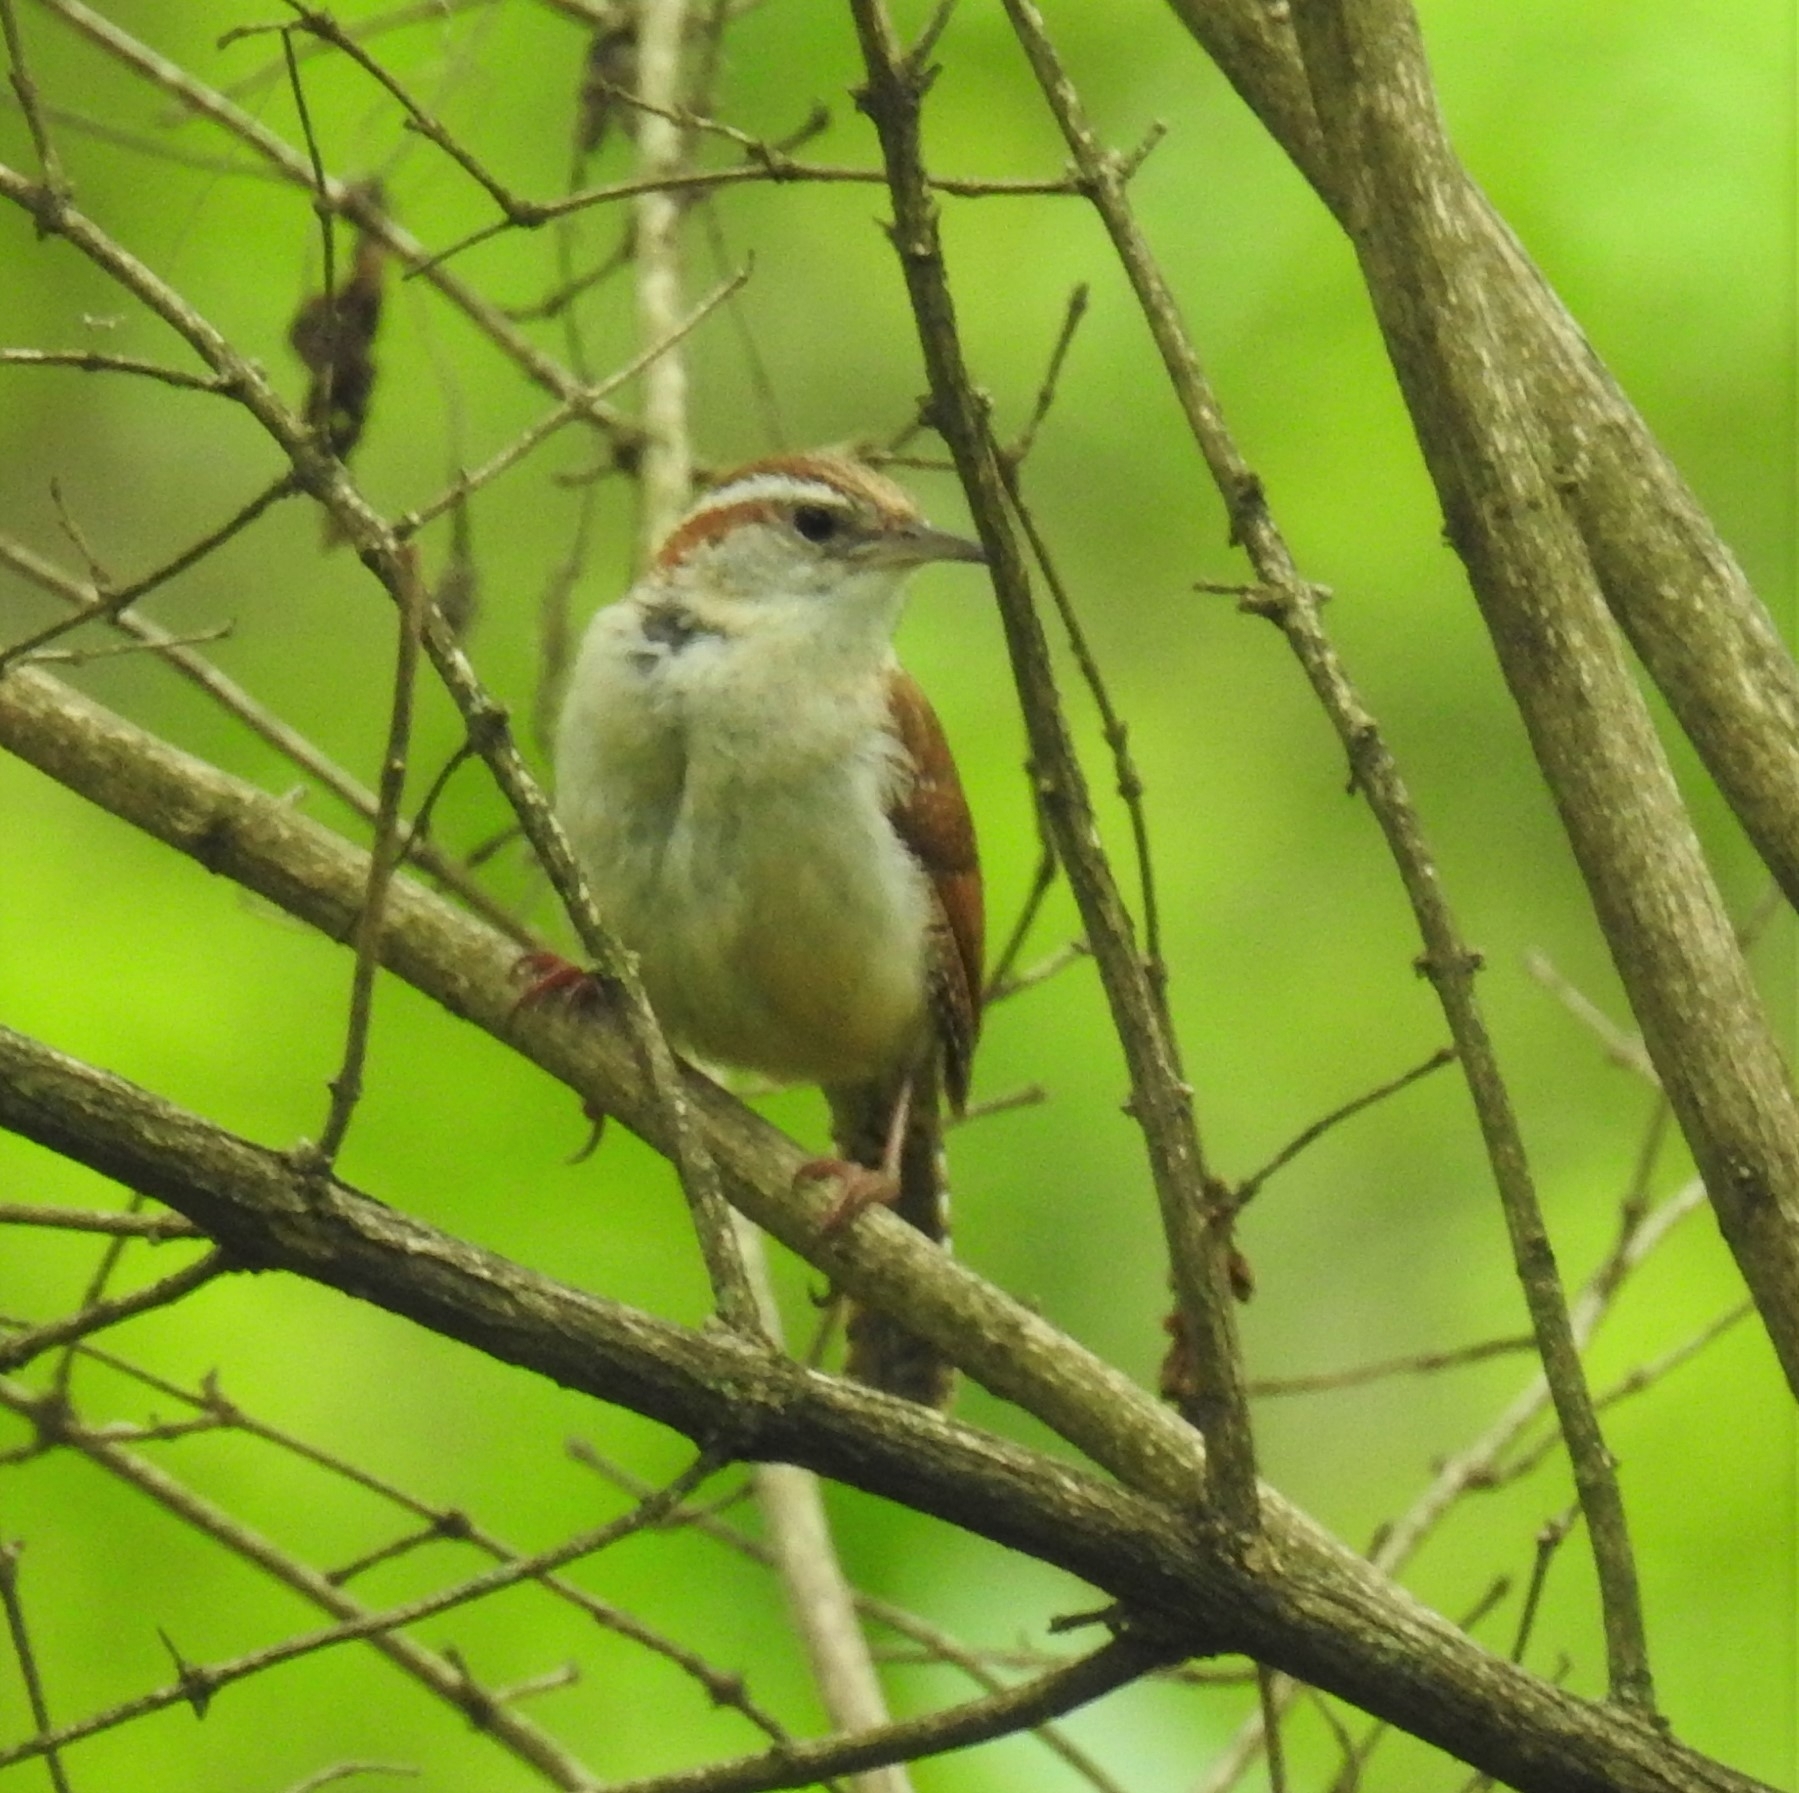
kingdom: Animalia
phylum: Chordata
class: Aves
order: Passeriformes
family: Troglodytidae
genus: Thryothorus
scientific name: Thryothorus ludovicianus
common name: Carolina wren
